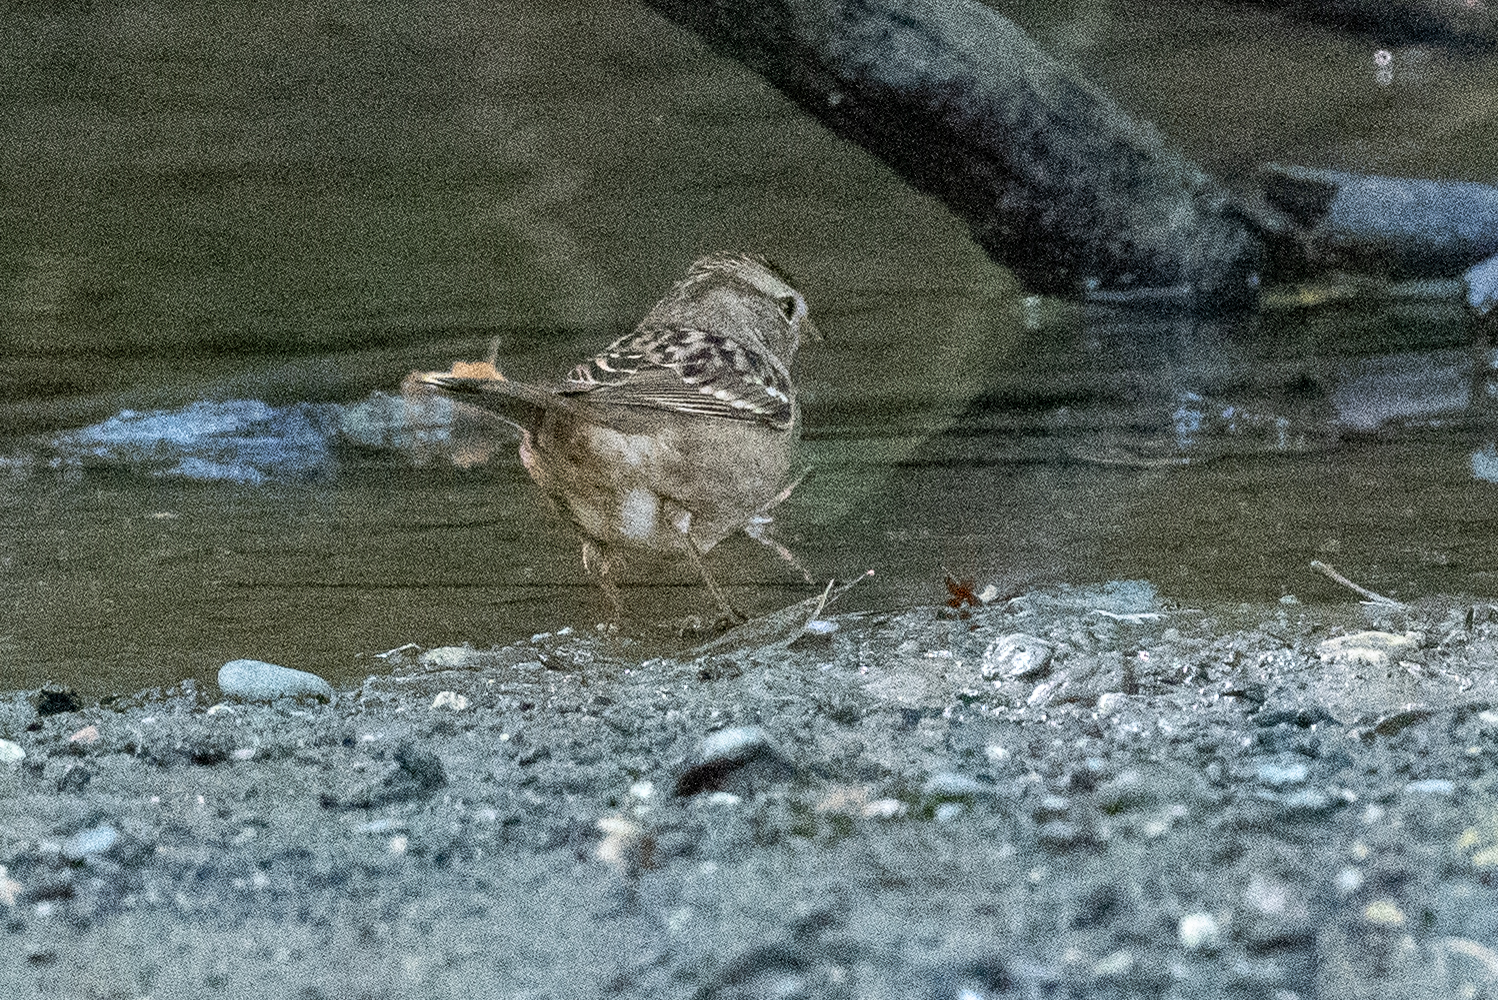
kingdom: Animalia
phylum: Chordata
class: Aves
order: Passeriformes
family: Passerellidae
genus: Zonotrichia
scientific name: Zonotrichia leucophrys
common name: White-crowned sparrow
